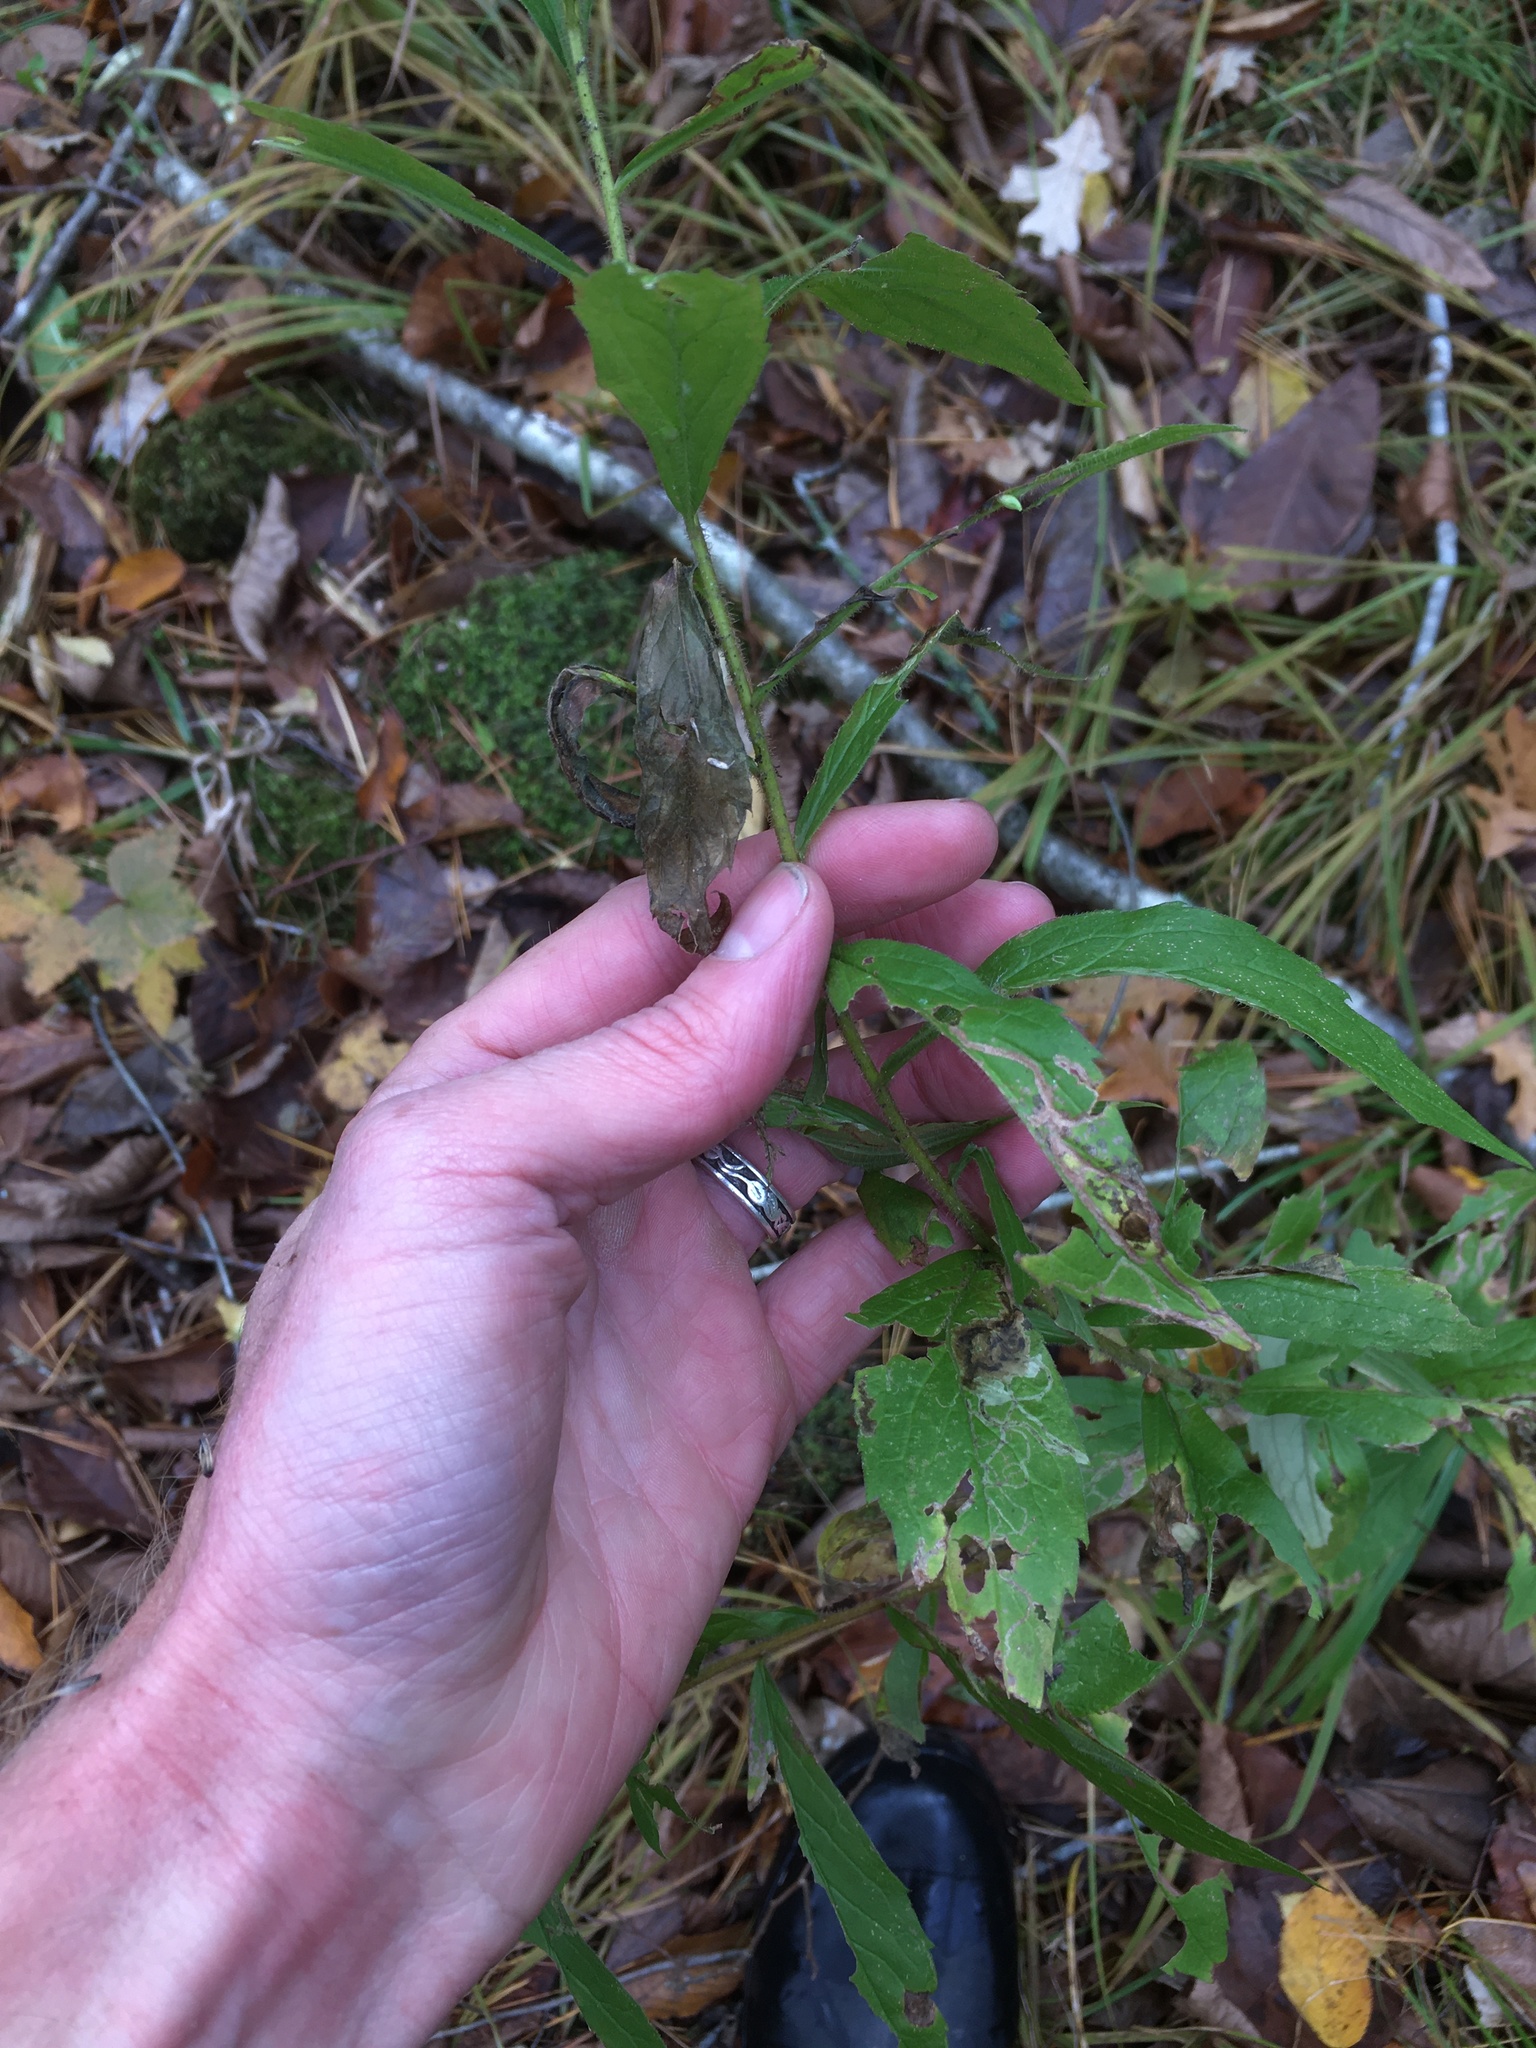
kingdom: Plantae
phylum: Tracheophyta
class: Magnoliopsida
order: Asterales
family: Asteraceae
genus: Solidago
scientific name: Solidago rugosa
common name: Rough-stemmed goldenrod
